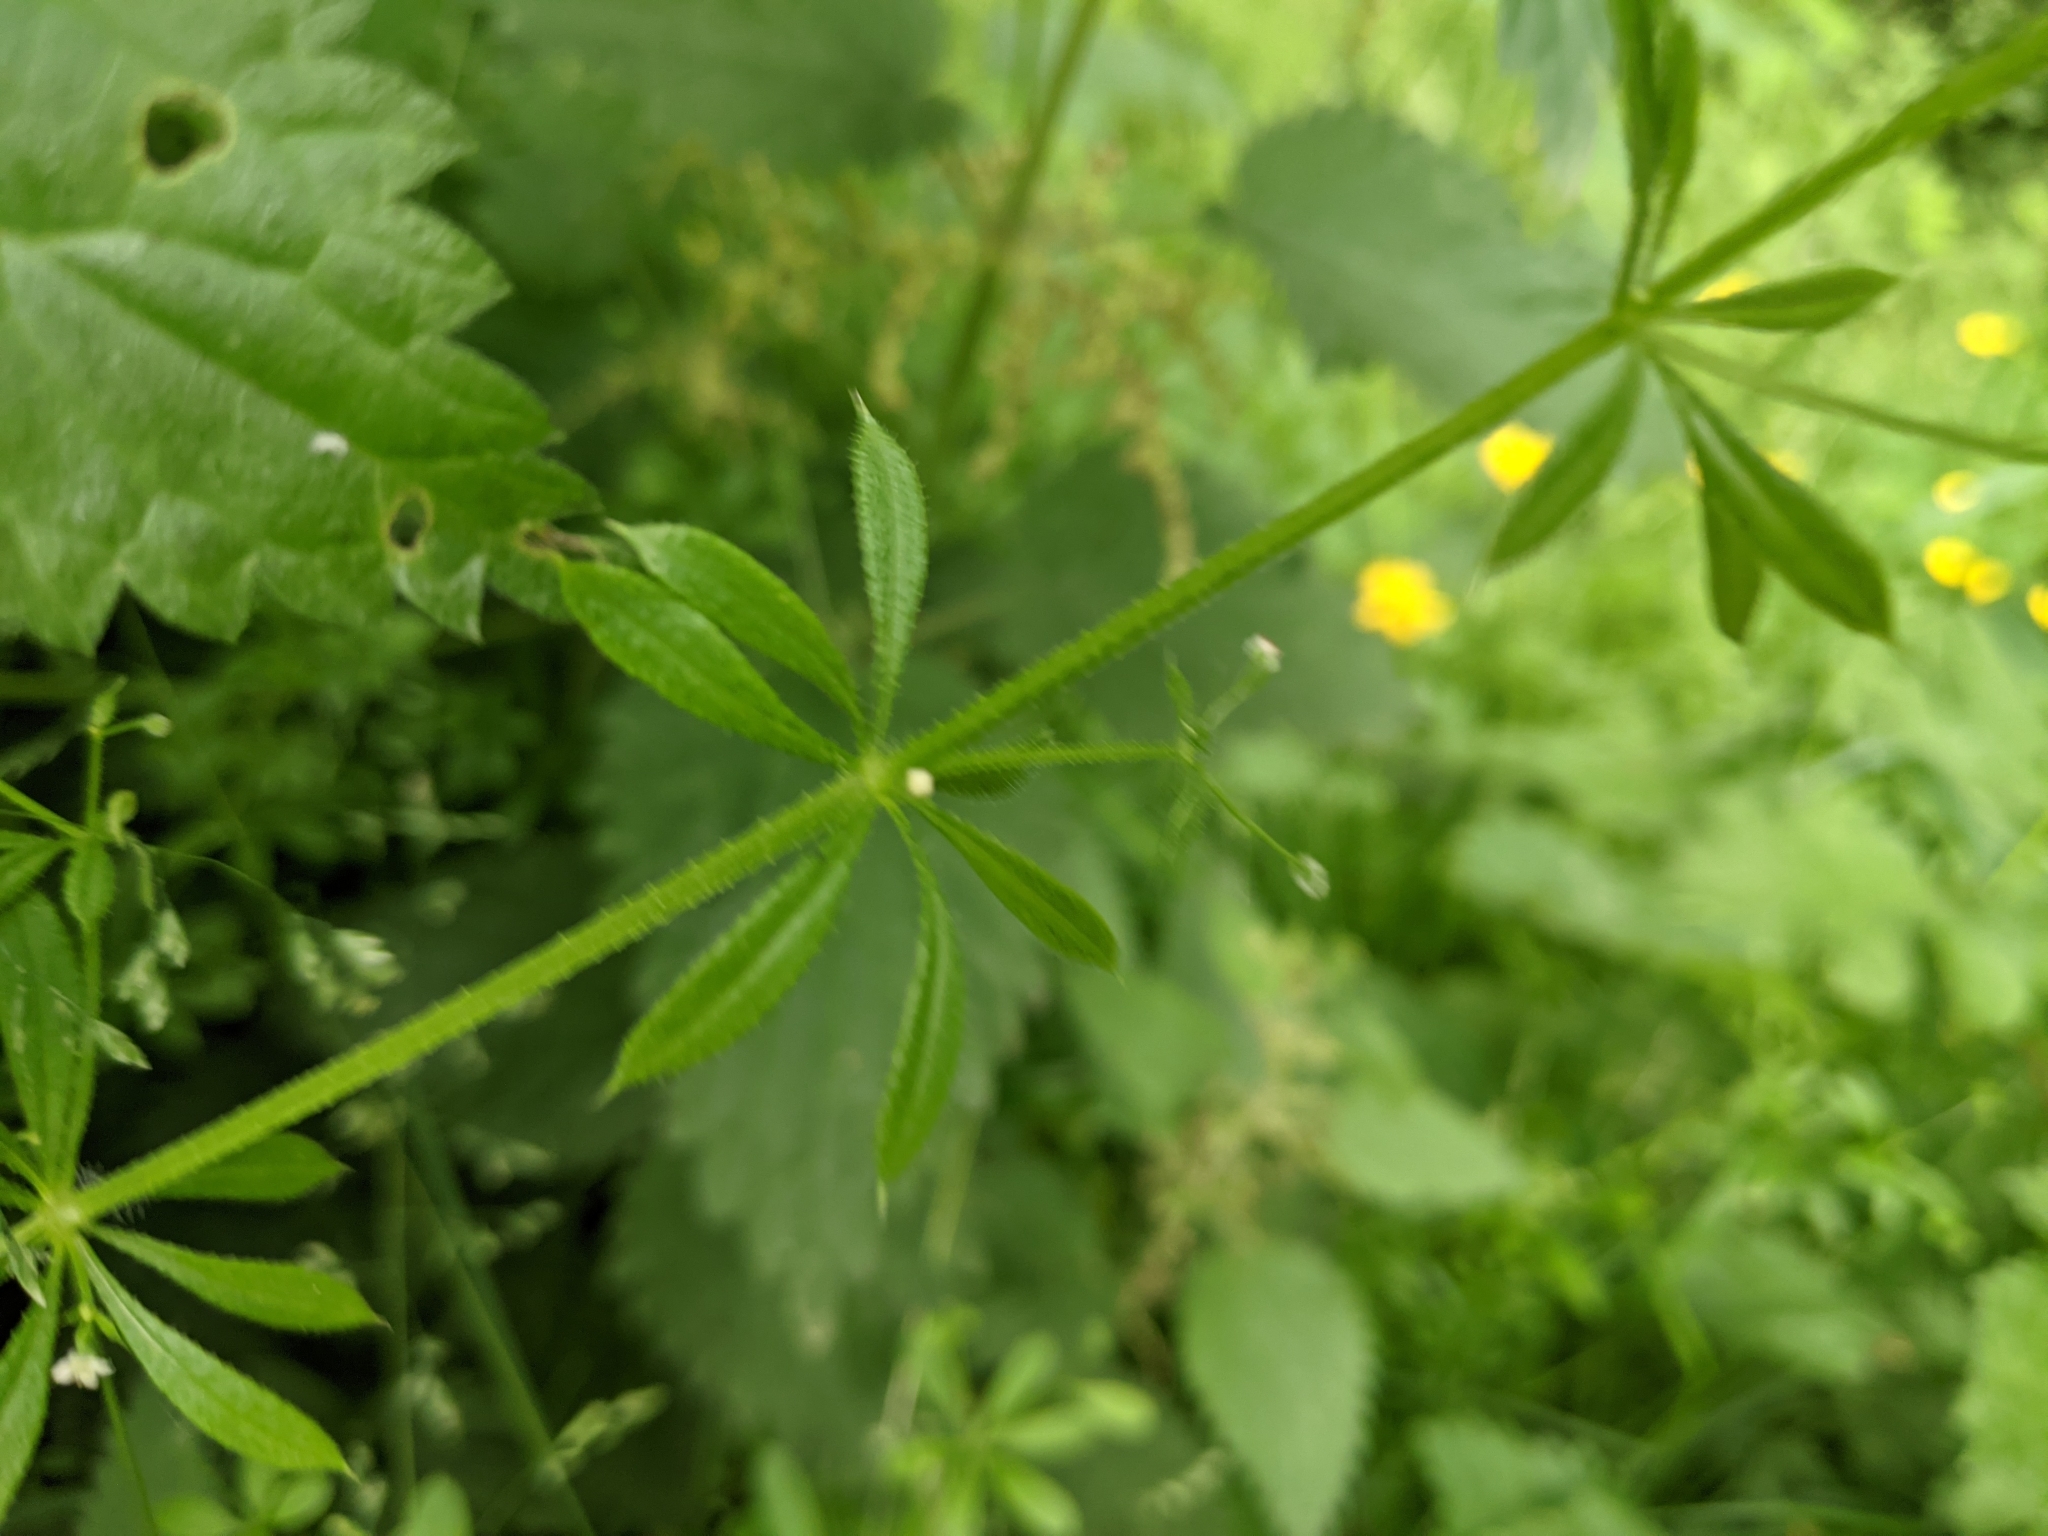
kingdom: Plantae
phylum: Tracheophyta
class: Magnoliopsida
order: Gentianales
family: Rubiaceae
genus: Galium
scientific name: Galium aparine
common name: Cleavers
